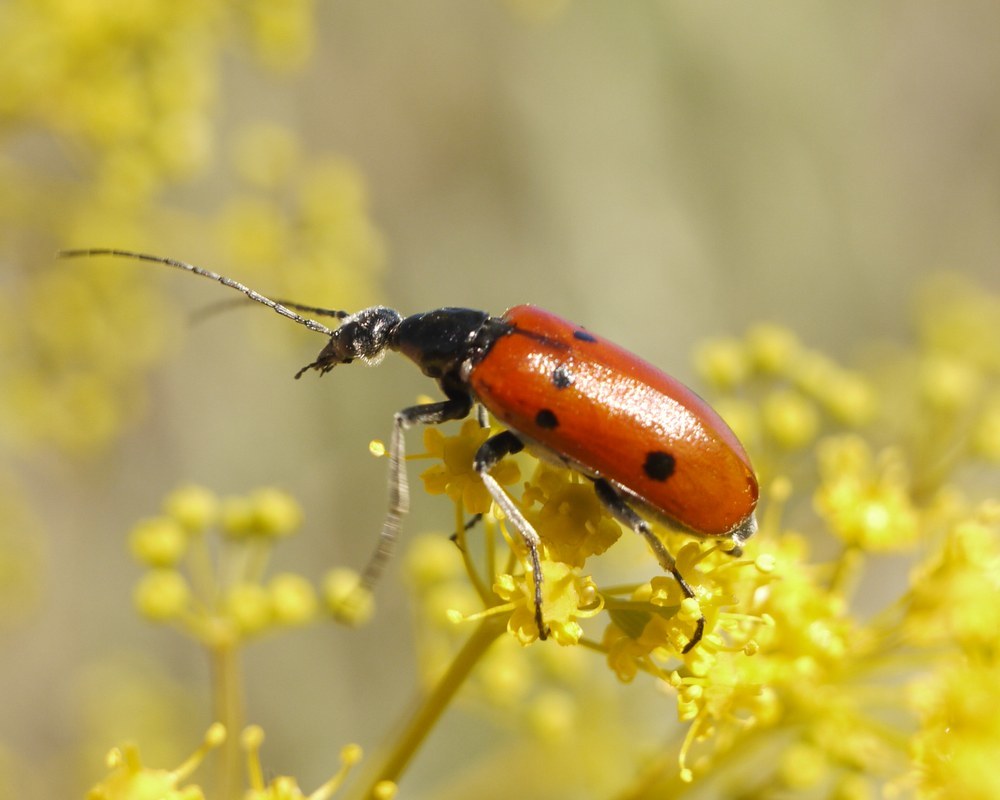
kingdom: Animalia
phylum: Arthropoda
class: Insecta
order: Coleoptera
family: Meloidae
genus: Stenodera
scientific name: Stenodera caucasica
